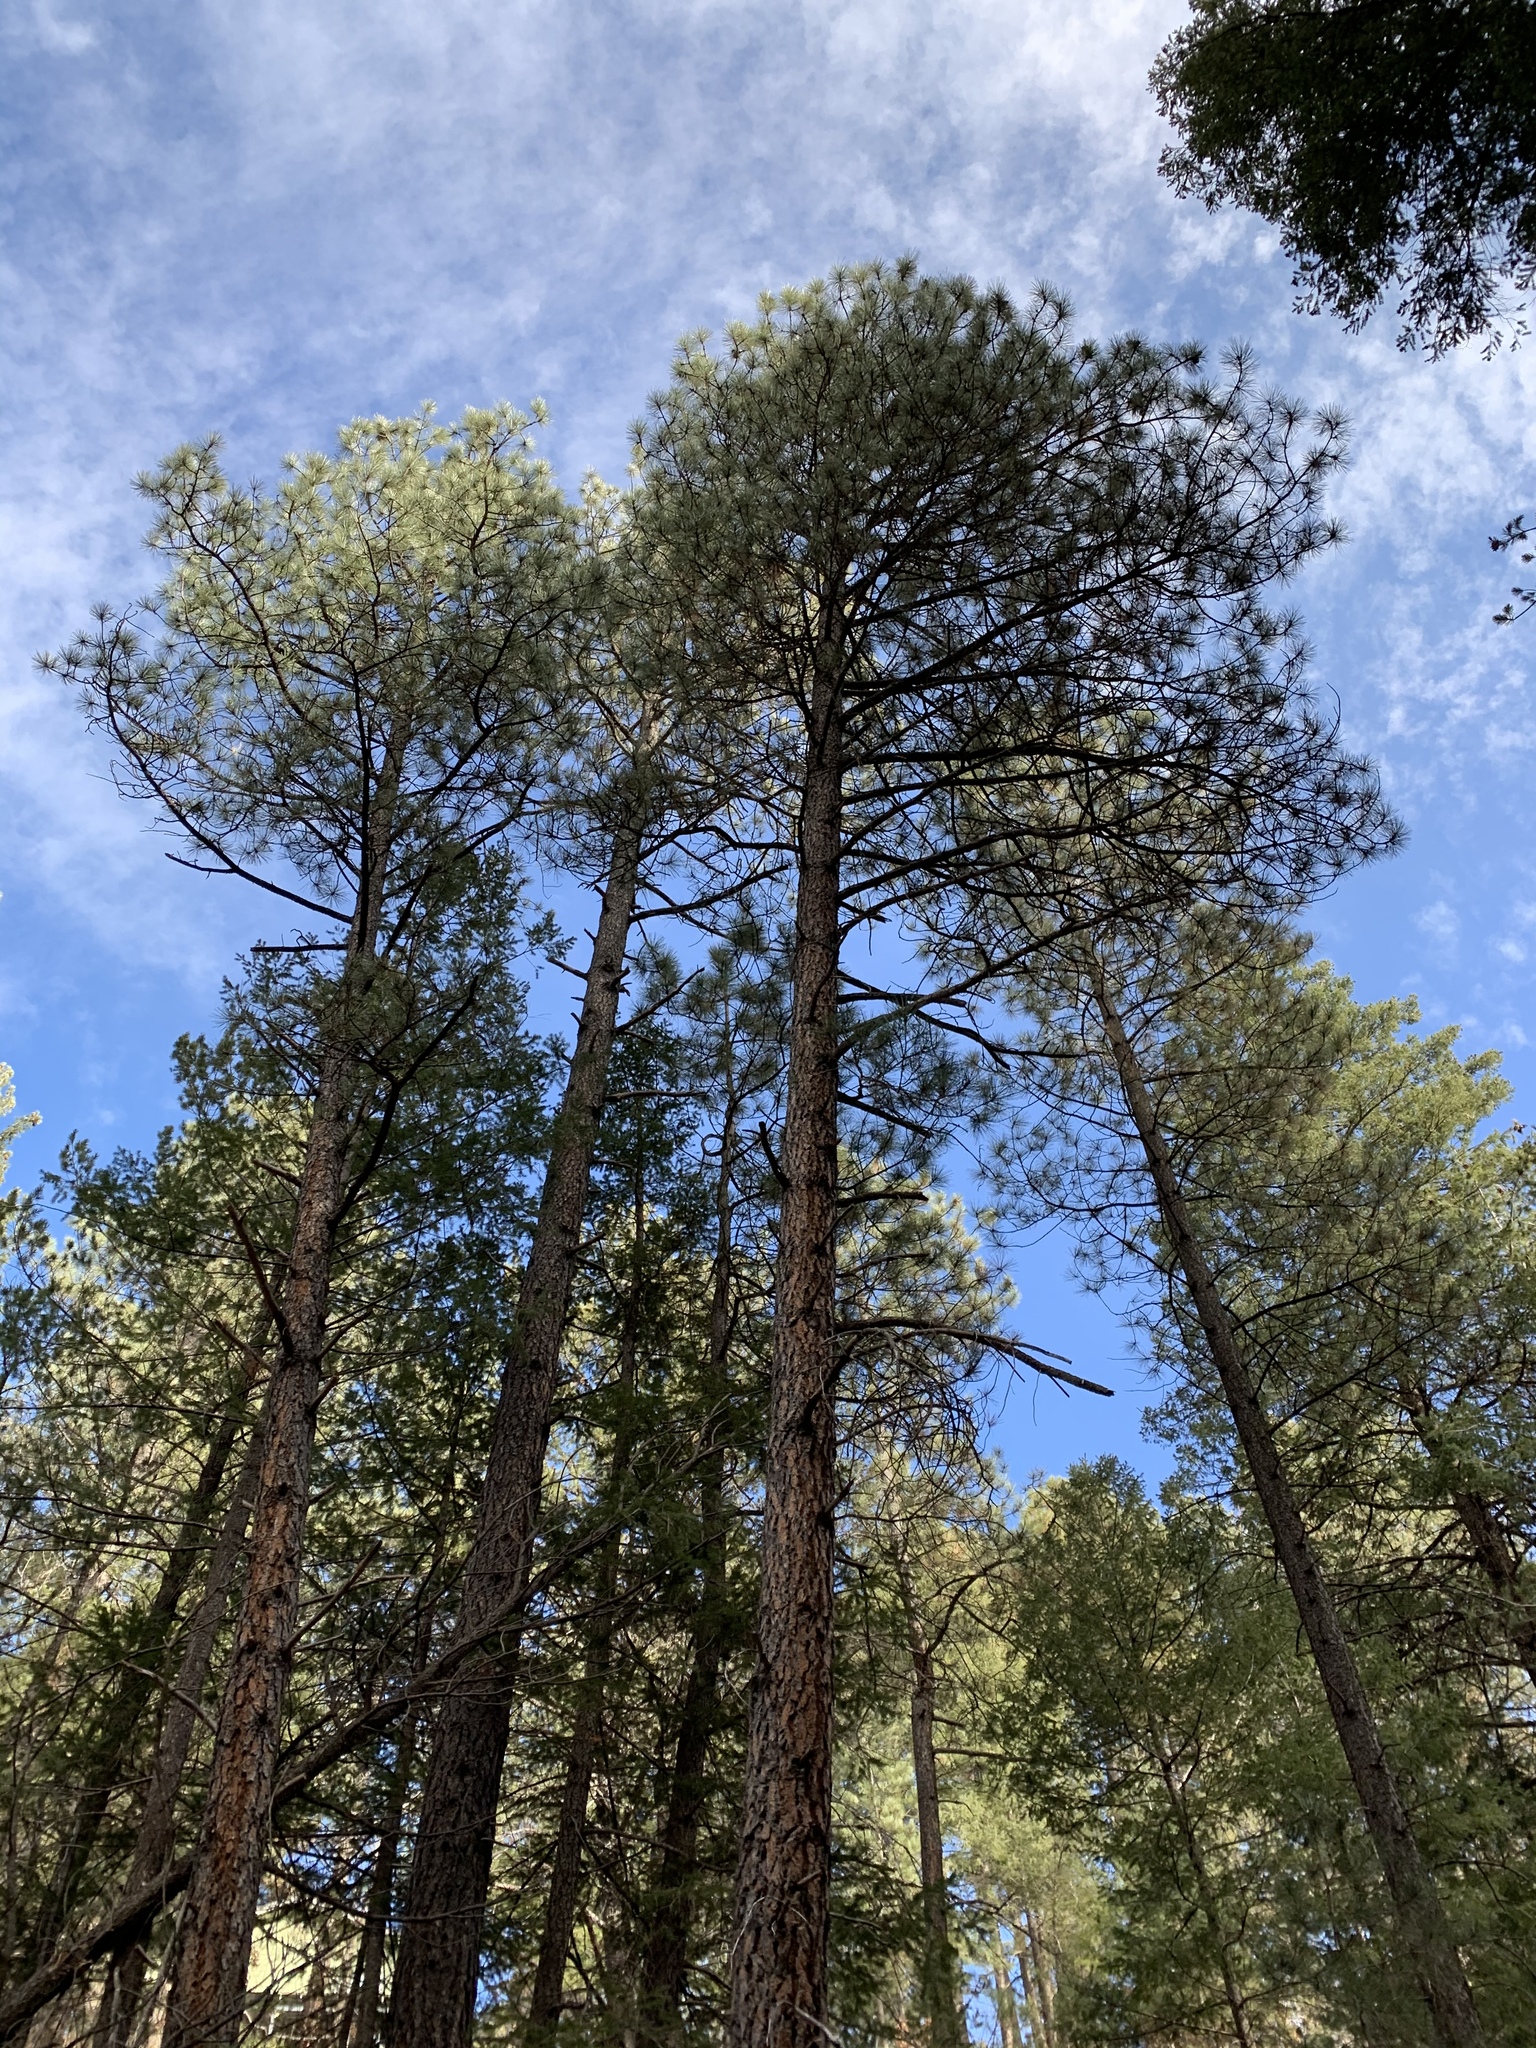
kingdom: Plantae
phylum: Tracheophyta
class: Pinopsida
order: Pinales
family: Pinaceae
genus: Pinus
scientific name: Pinus ponderosa
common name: Western yellow-pine
